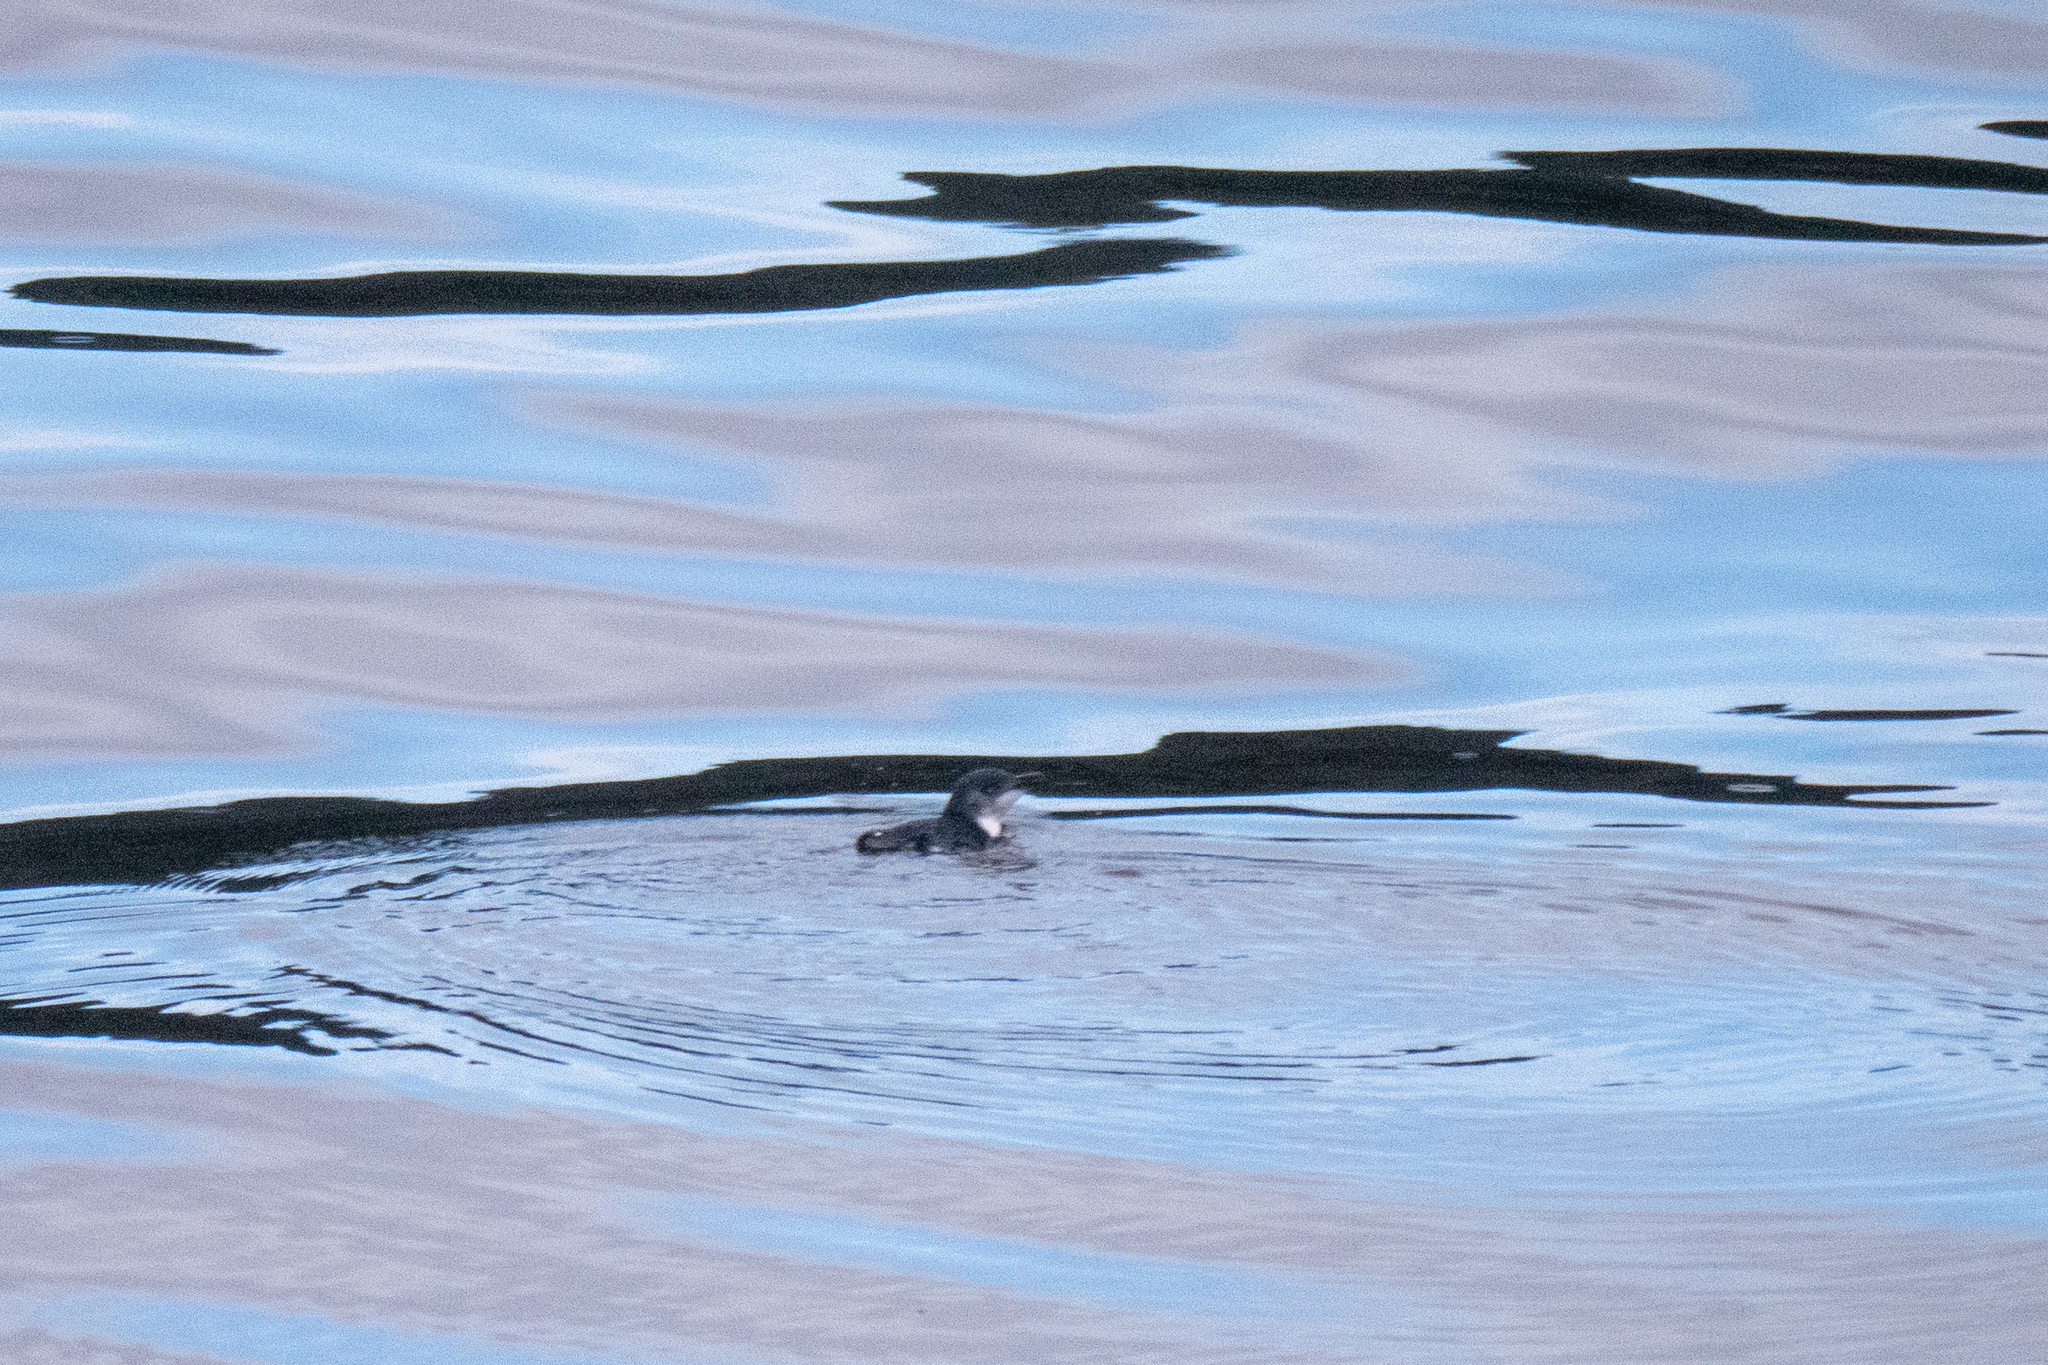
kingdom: Animalia
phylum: Chordata
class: Aves
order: Sphenisciformes
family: Spheniscidae
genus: Eudyptula
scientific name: Eudyptula minor
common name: Little penguin
